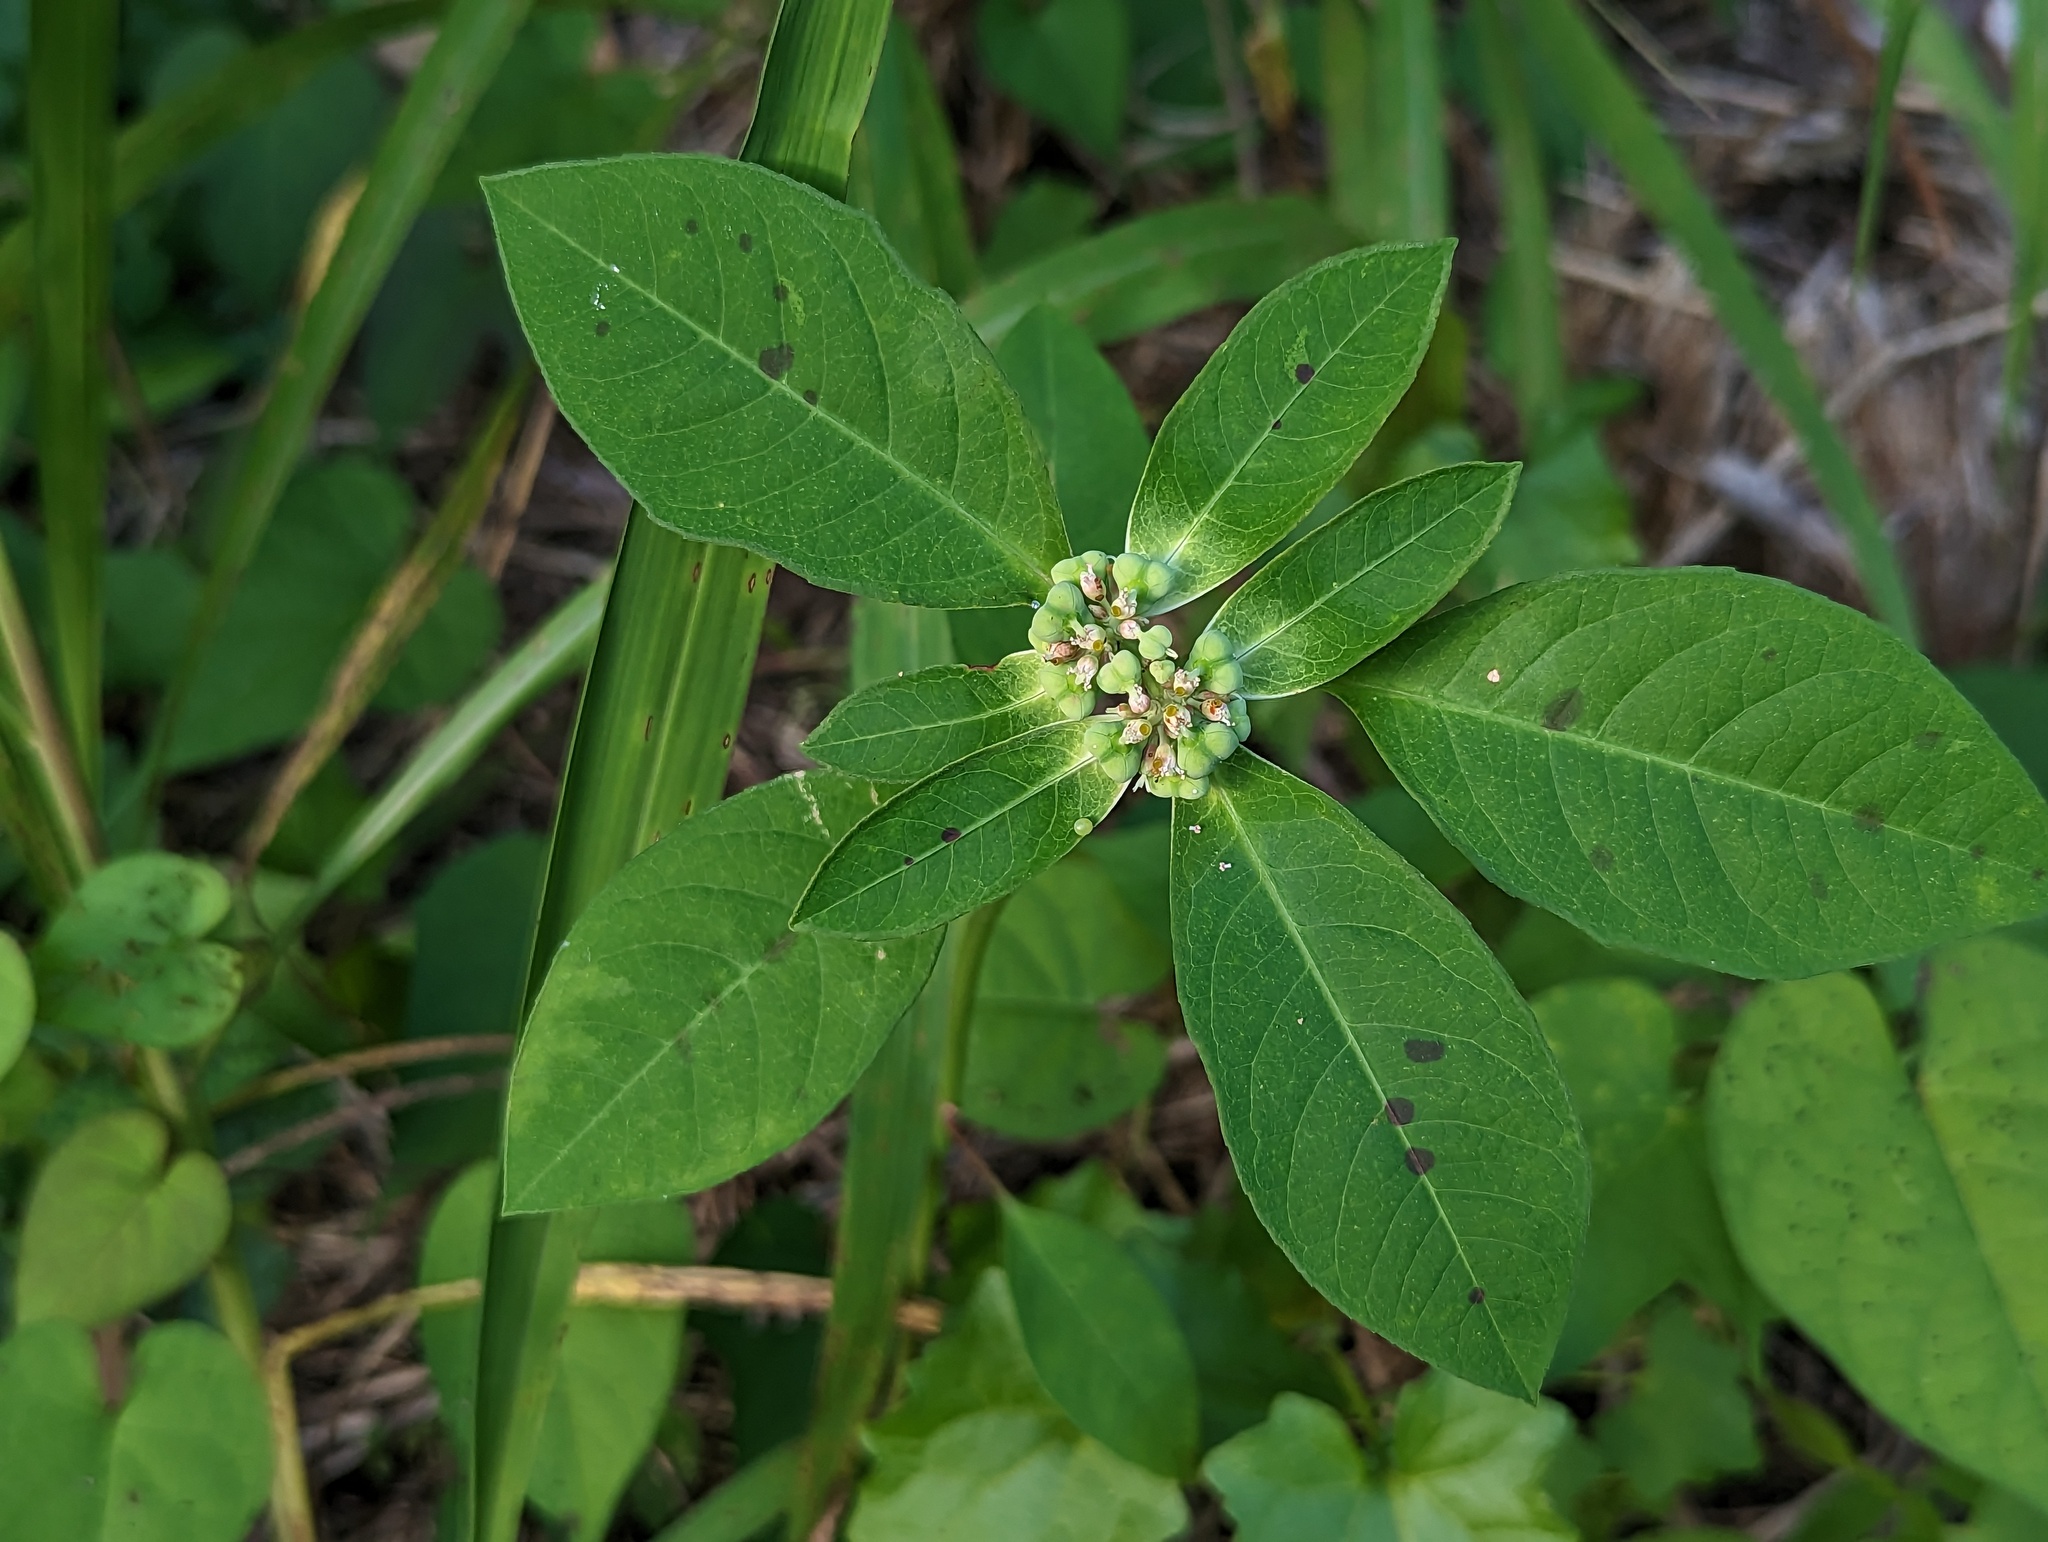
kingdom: Plantae
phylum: Tracheophyta
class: Magnoliopsida
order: Malpighiales
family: Euphorbiaceae
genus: Euphorbia
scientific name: Euphorbia heterophylla
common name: Mexican fireplant
